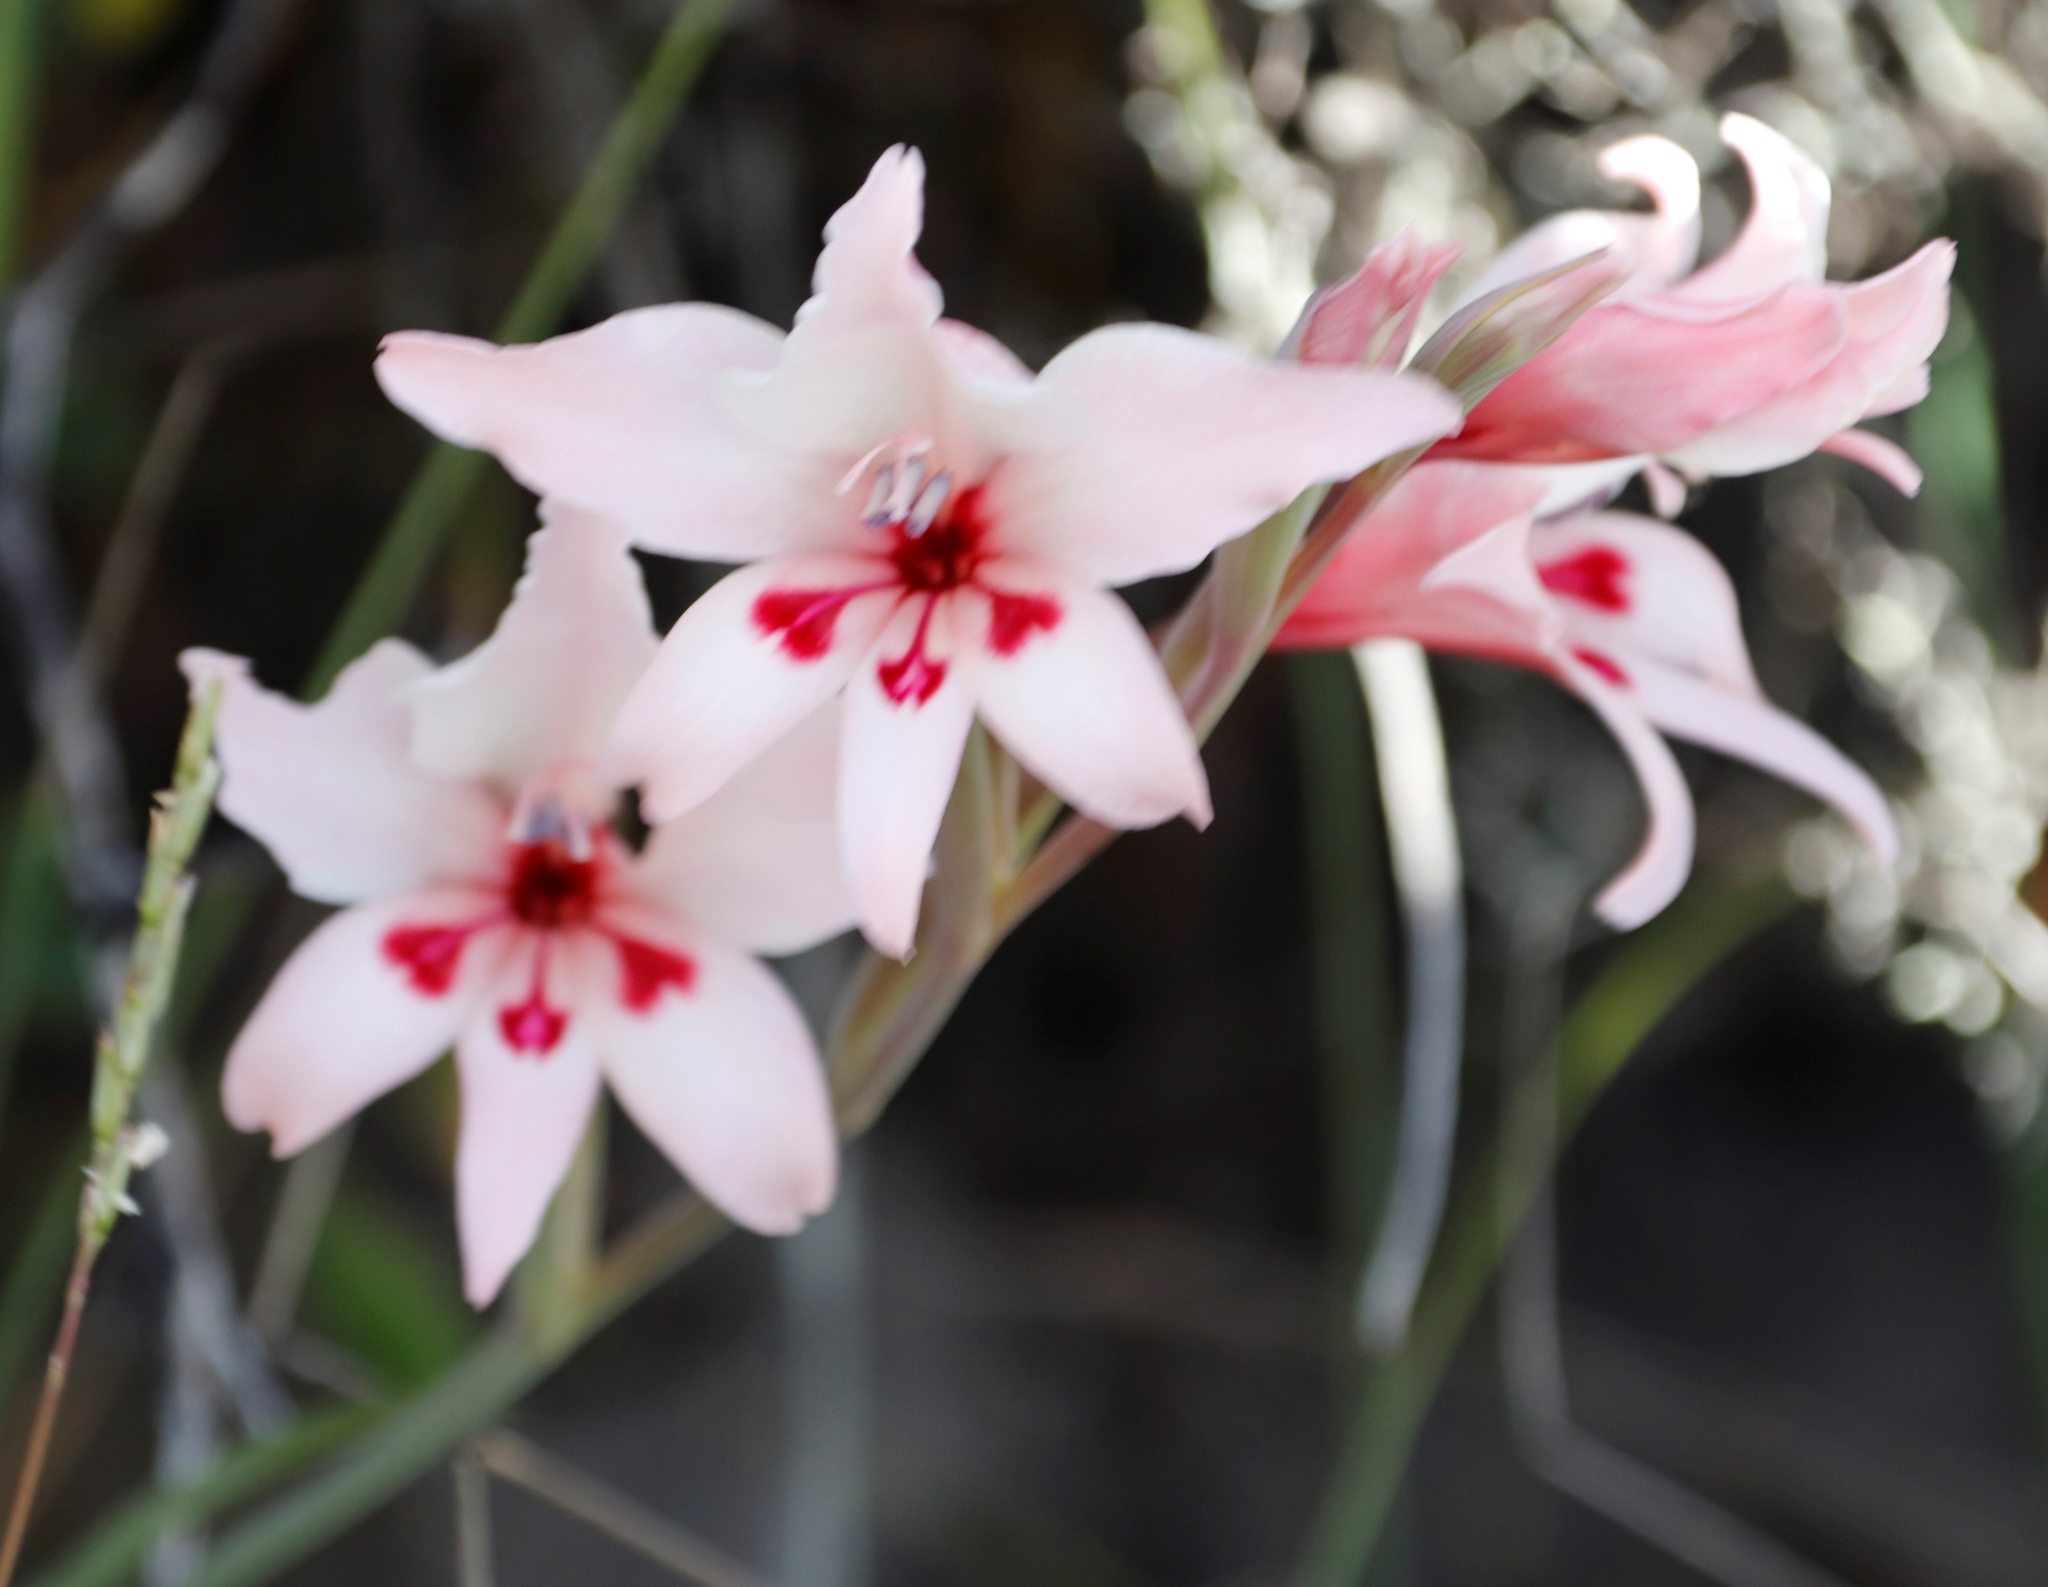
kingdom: Plantae
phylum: Tracheophyta
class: Liliopsida
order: Asparagales
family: Iridaceae
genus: Gladiolus
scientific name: Gladiolus carneus
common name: Painted-lady
